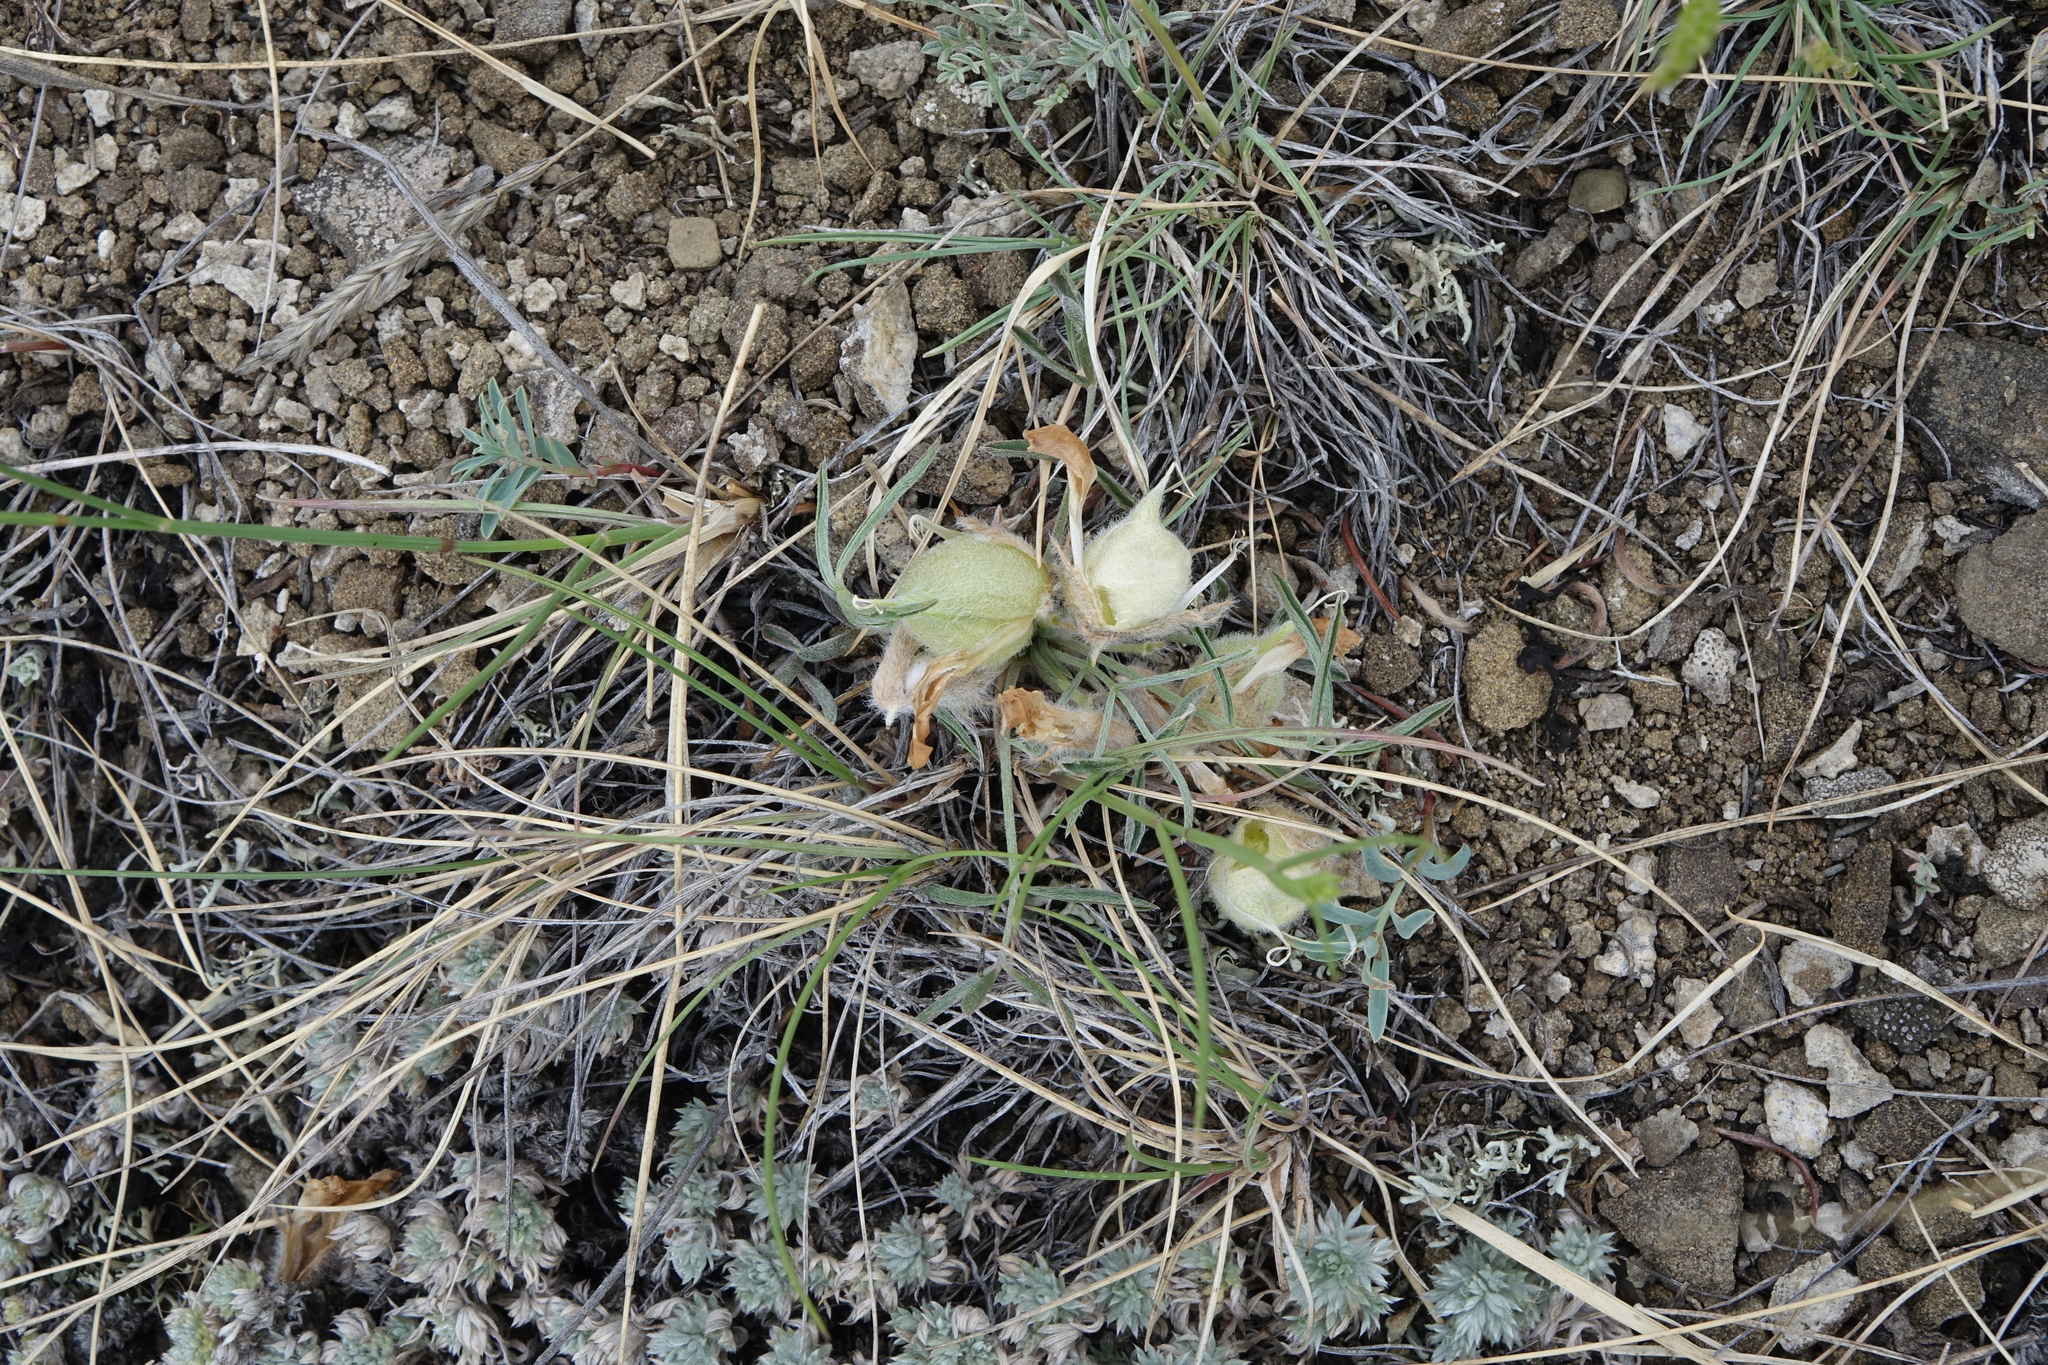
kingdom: Plantae
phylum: Tracheophyta
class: Magnoliopsida
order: Fabales
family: Fabaceae
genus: Oxytropis
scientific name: Oxytropis sobolevskajae
